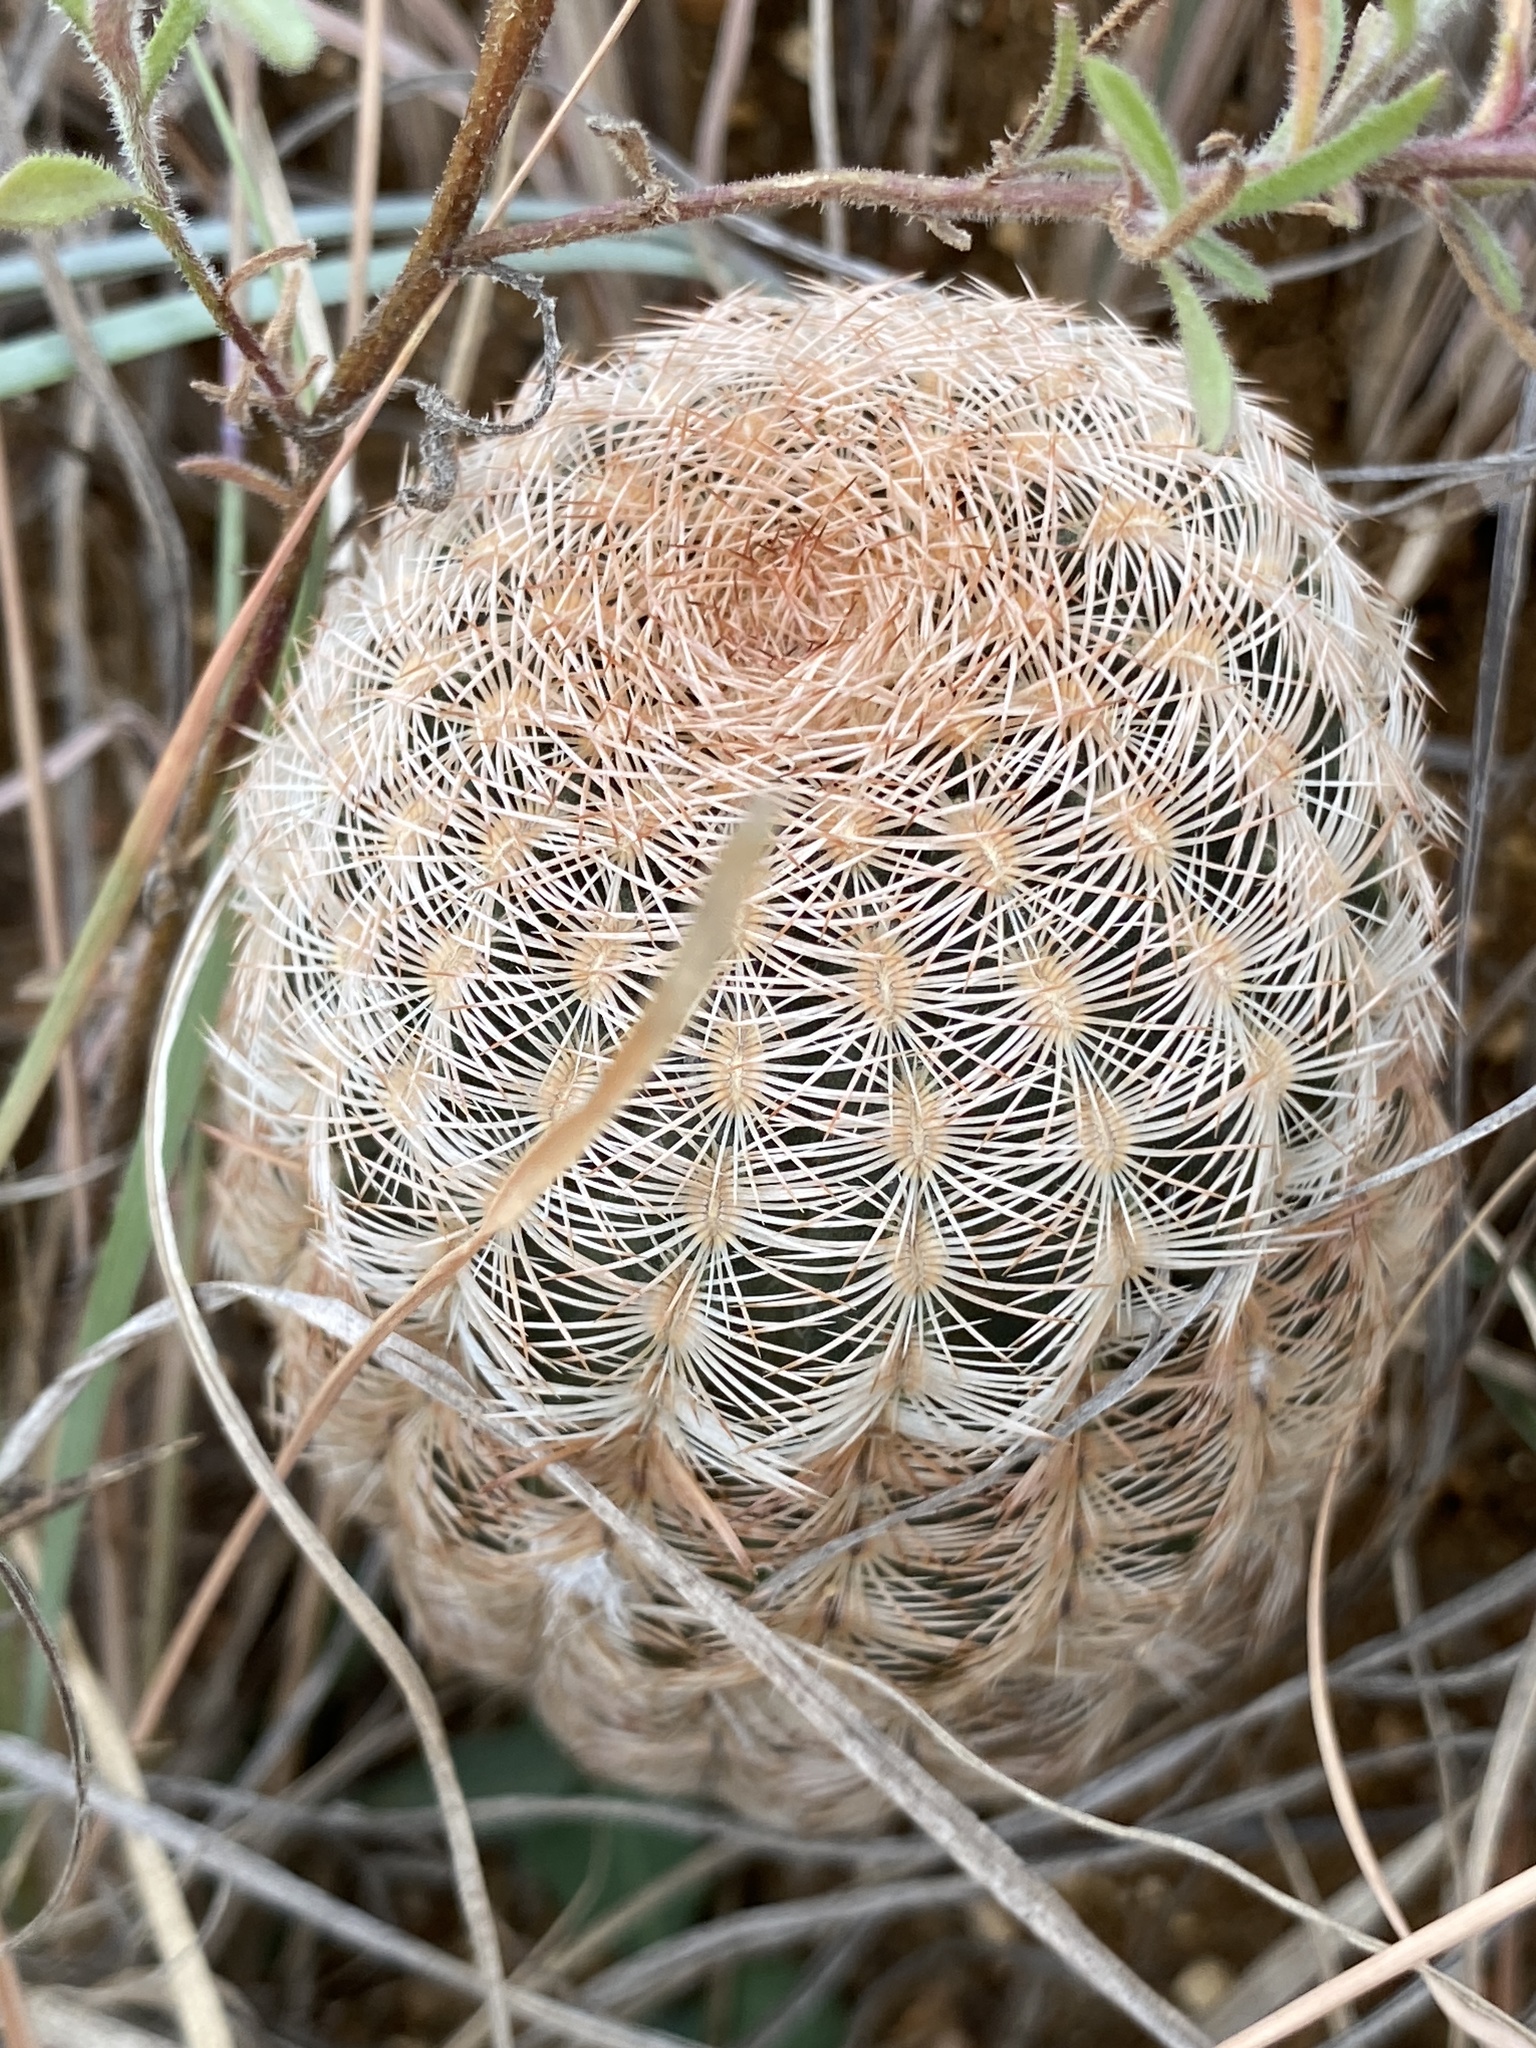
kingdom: Plantae
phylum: Tracheophyta
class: Magnoliopsida
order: Caryophyllales
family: Cactaceae
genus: Echinocereus
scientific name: Echinocereus reichenbachii
